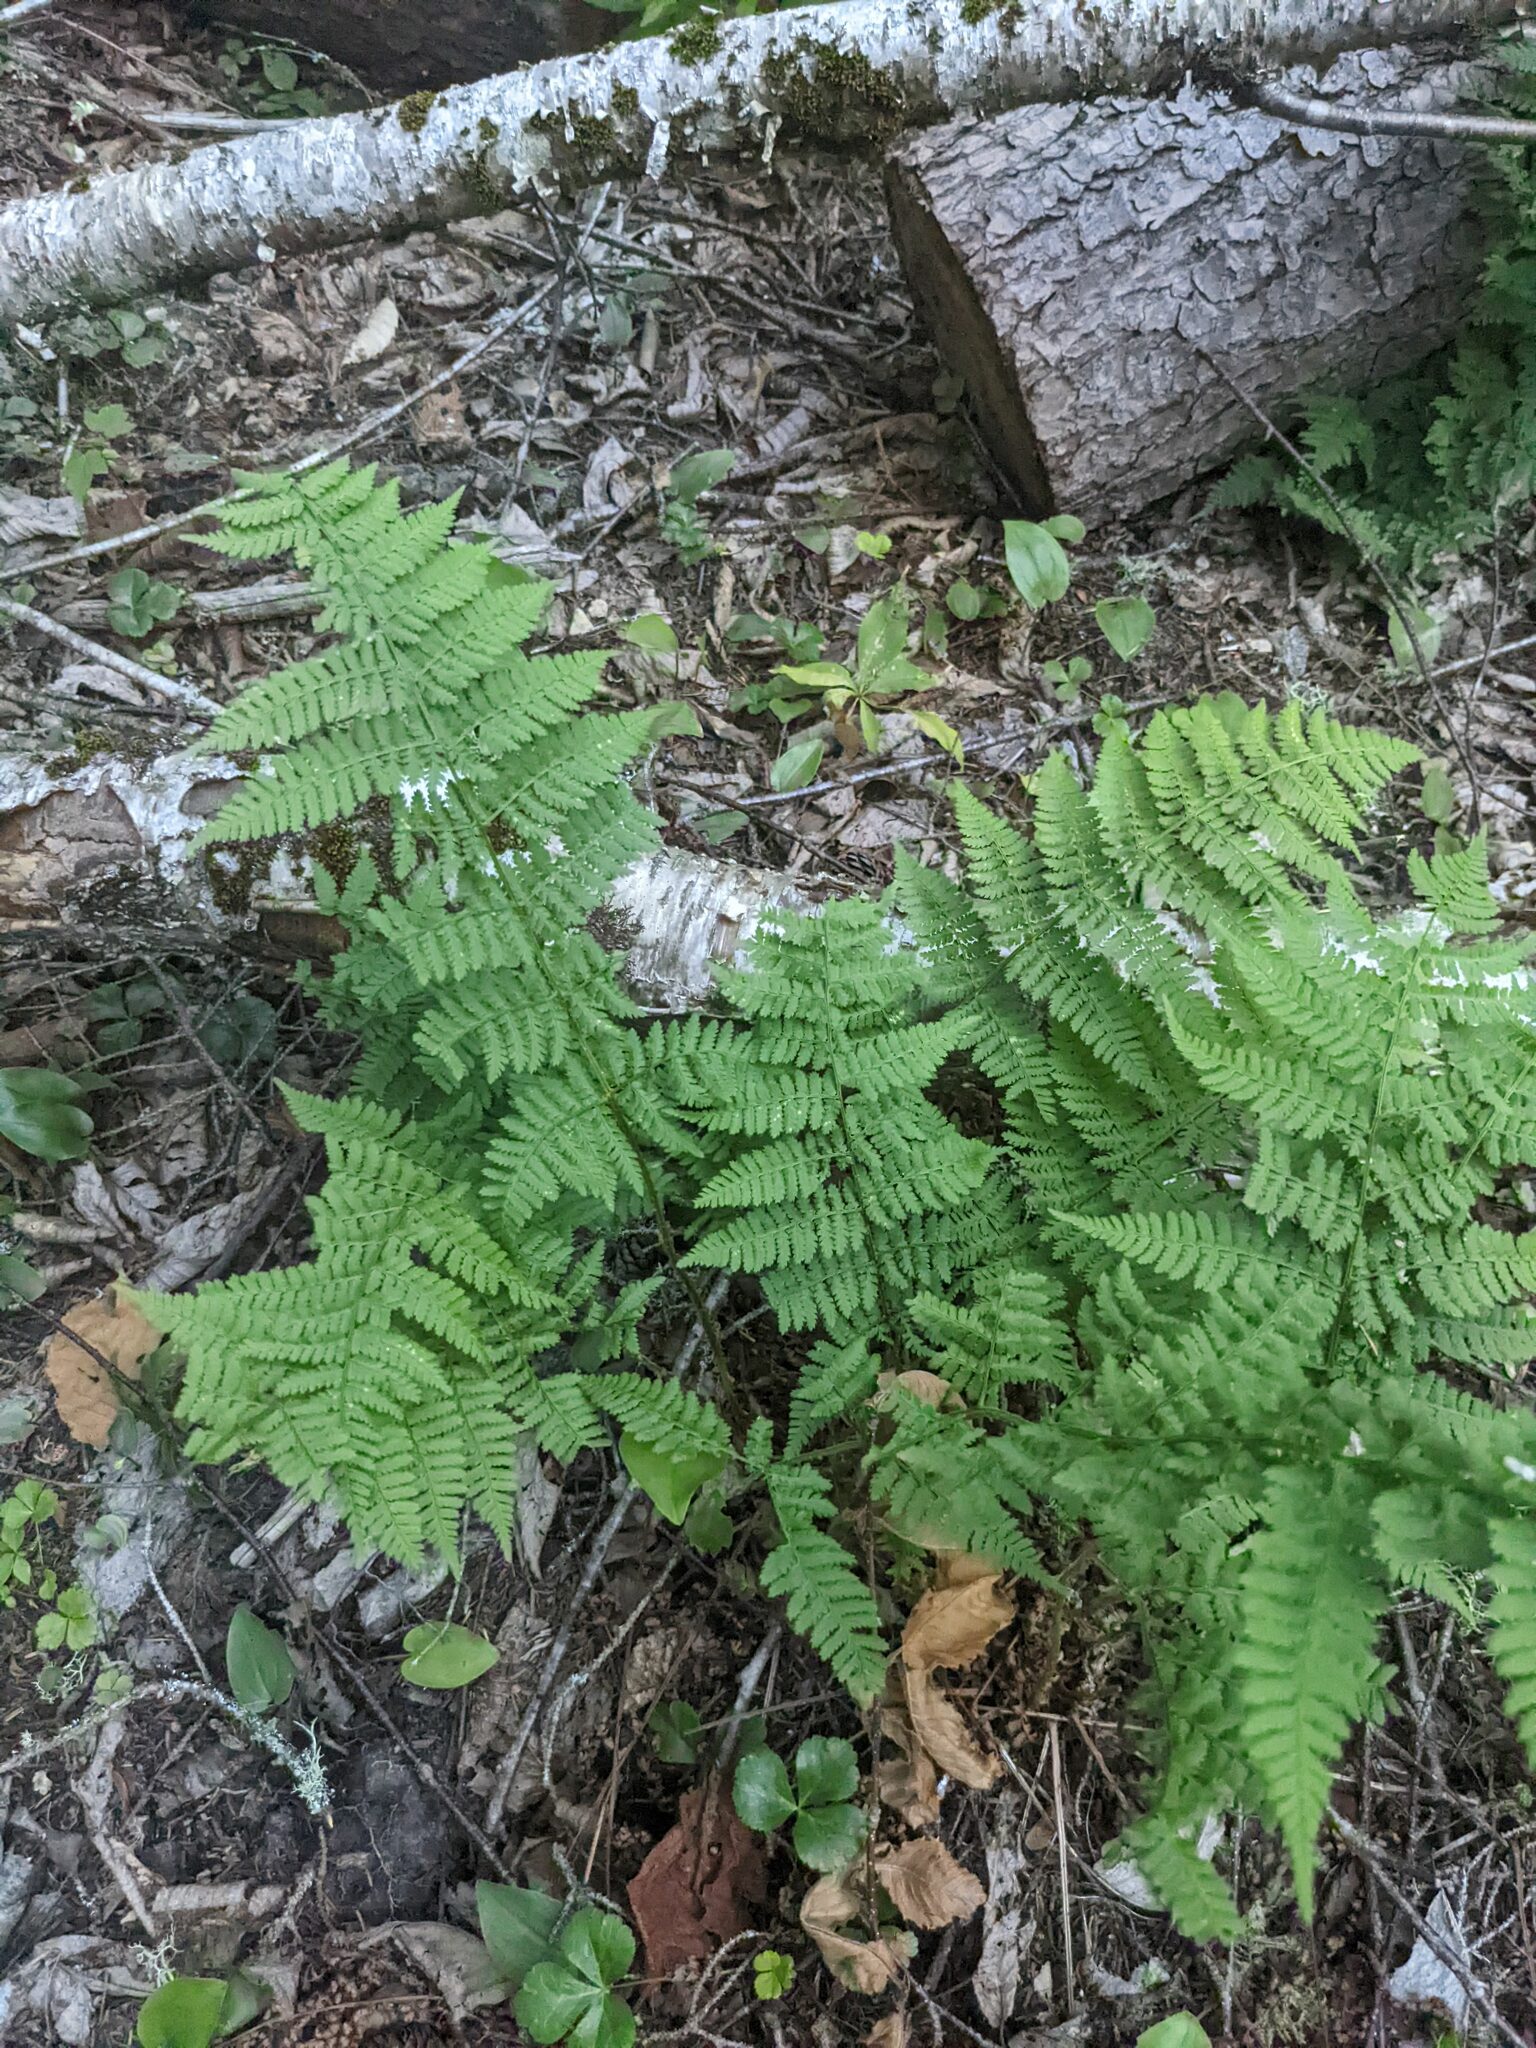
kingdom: Plantae
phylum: Tracheophyta
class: Polypodiopsida
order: Polypodiales
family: Dryopteridaceae
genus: Dryopteris
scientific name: Dryopteris intermedia
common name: Evergreen wood fern
